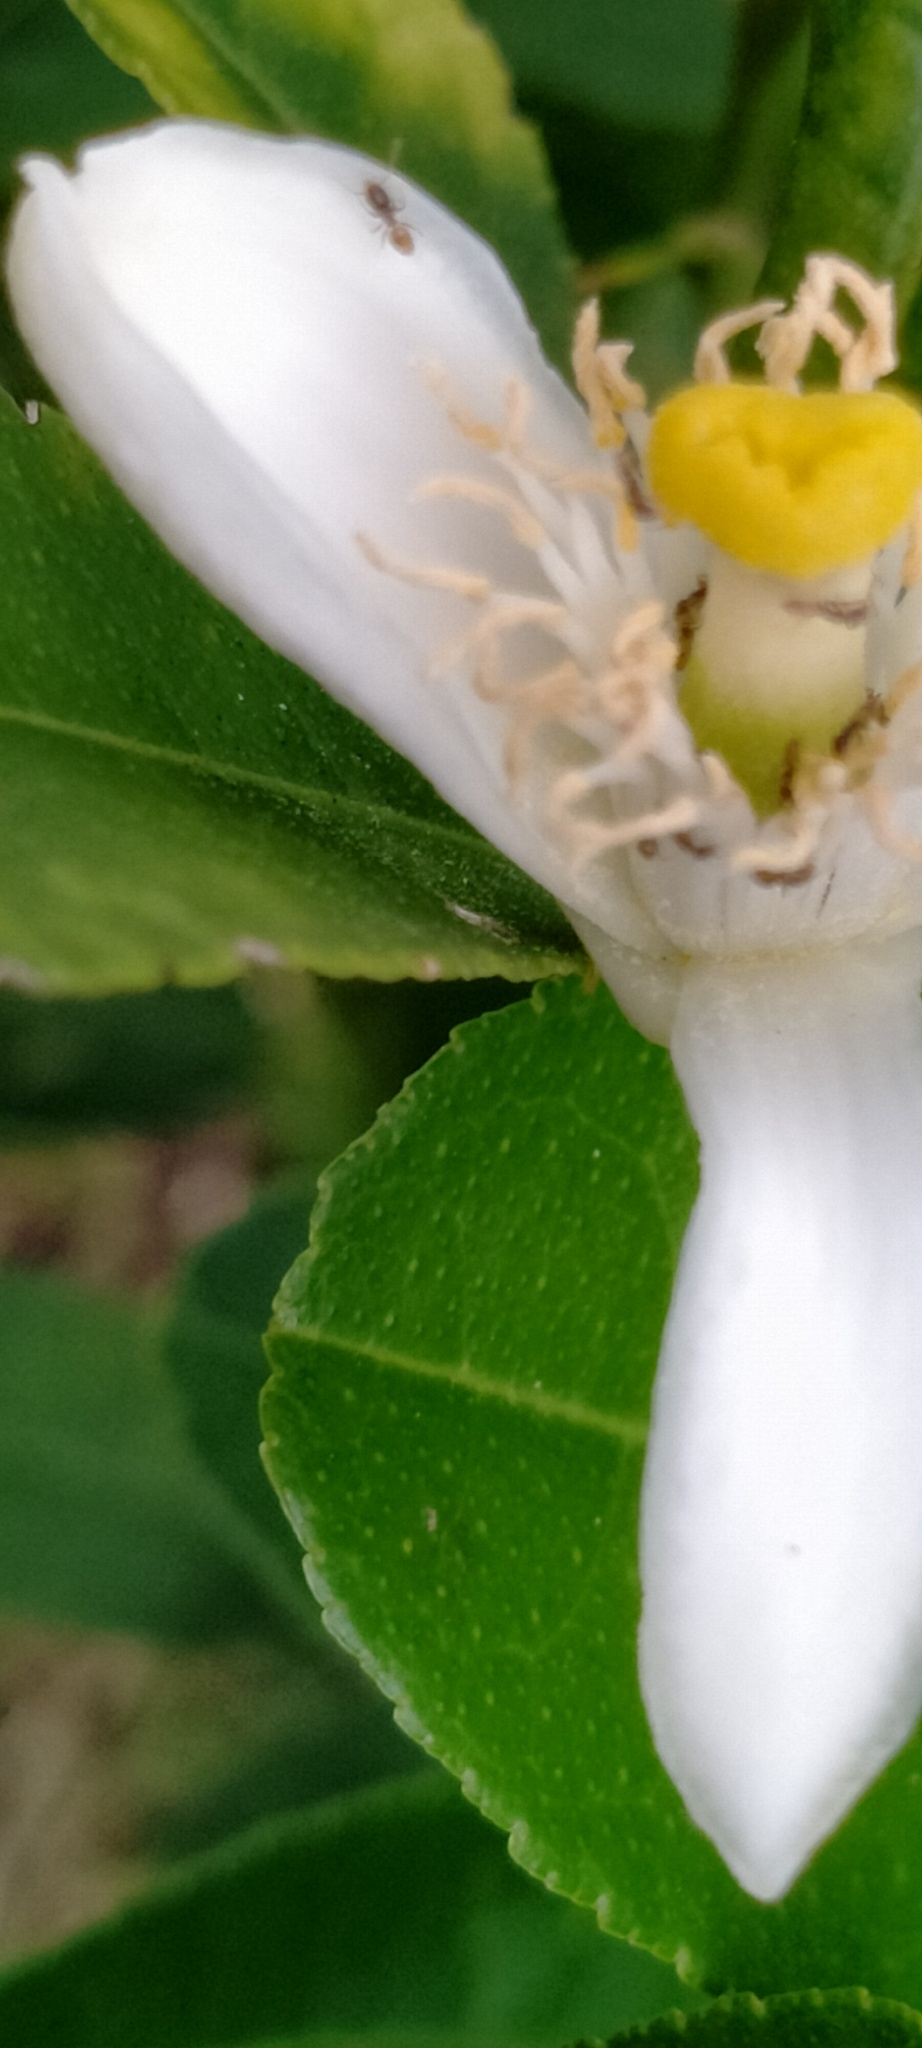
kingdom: Animalia
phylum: Arthropoda
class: Insecta
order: Hymenoptera
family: Formicidae
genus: Tapinoma
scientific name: Tapinoma melanocephalum
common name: Ghost ant
